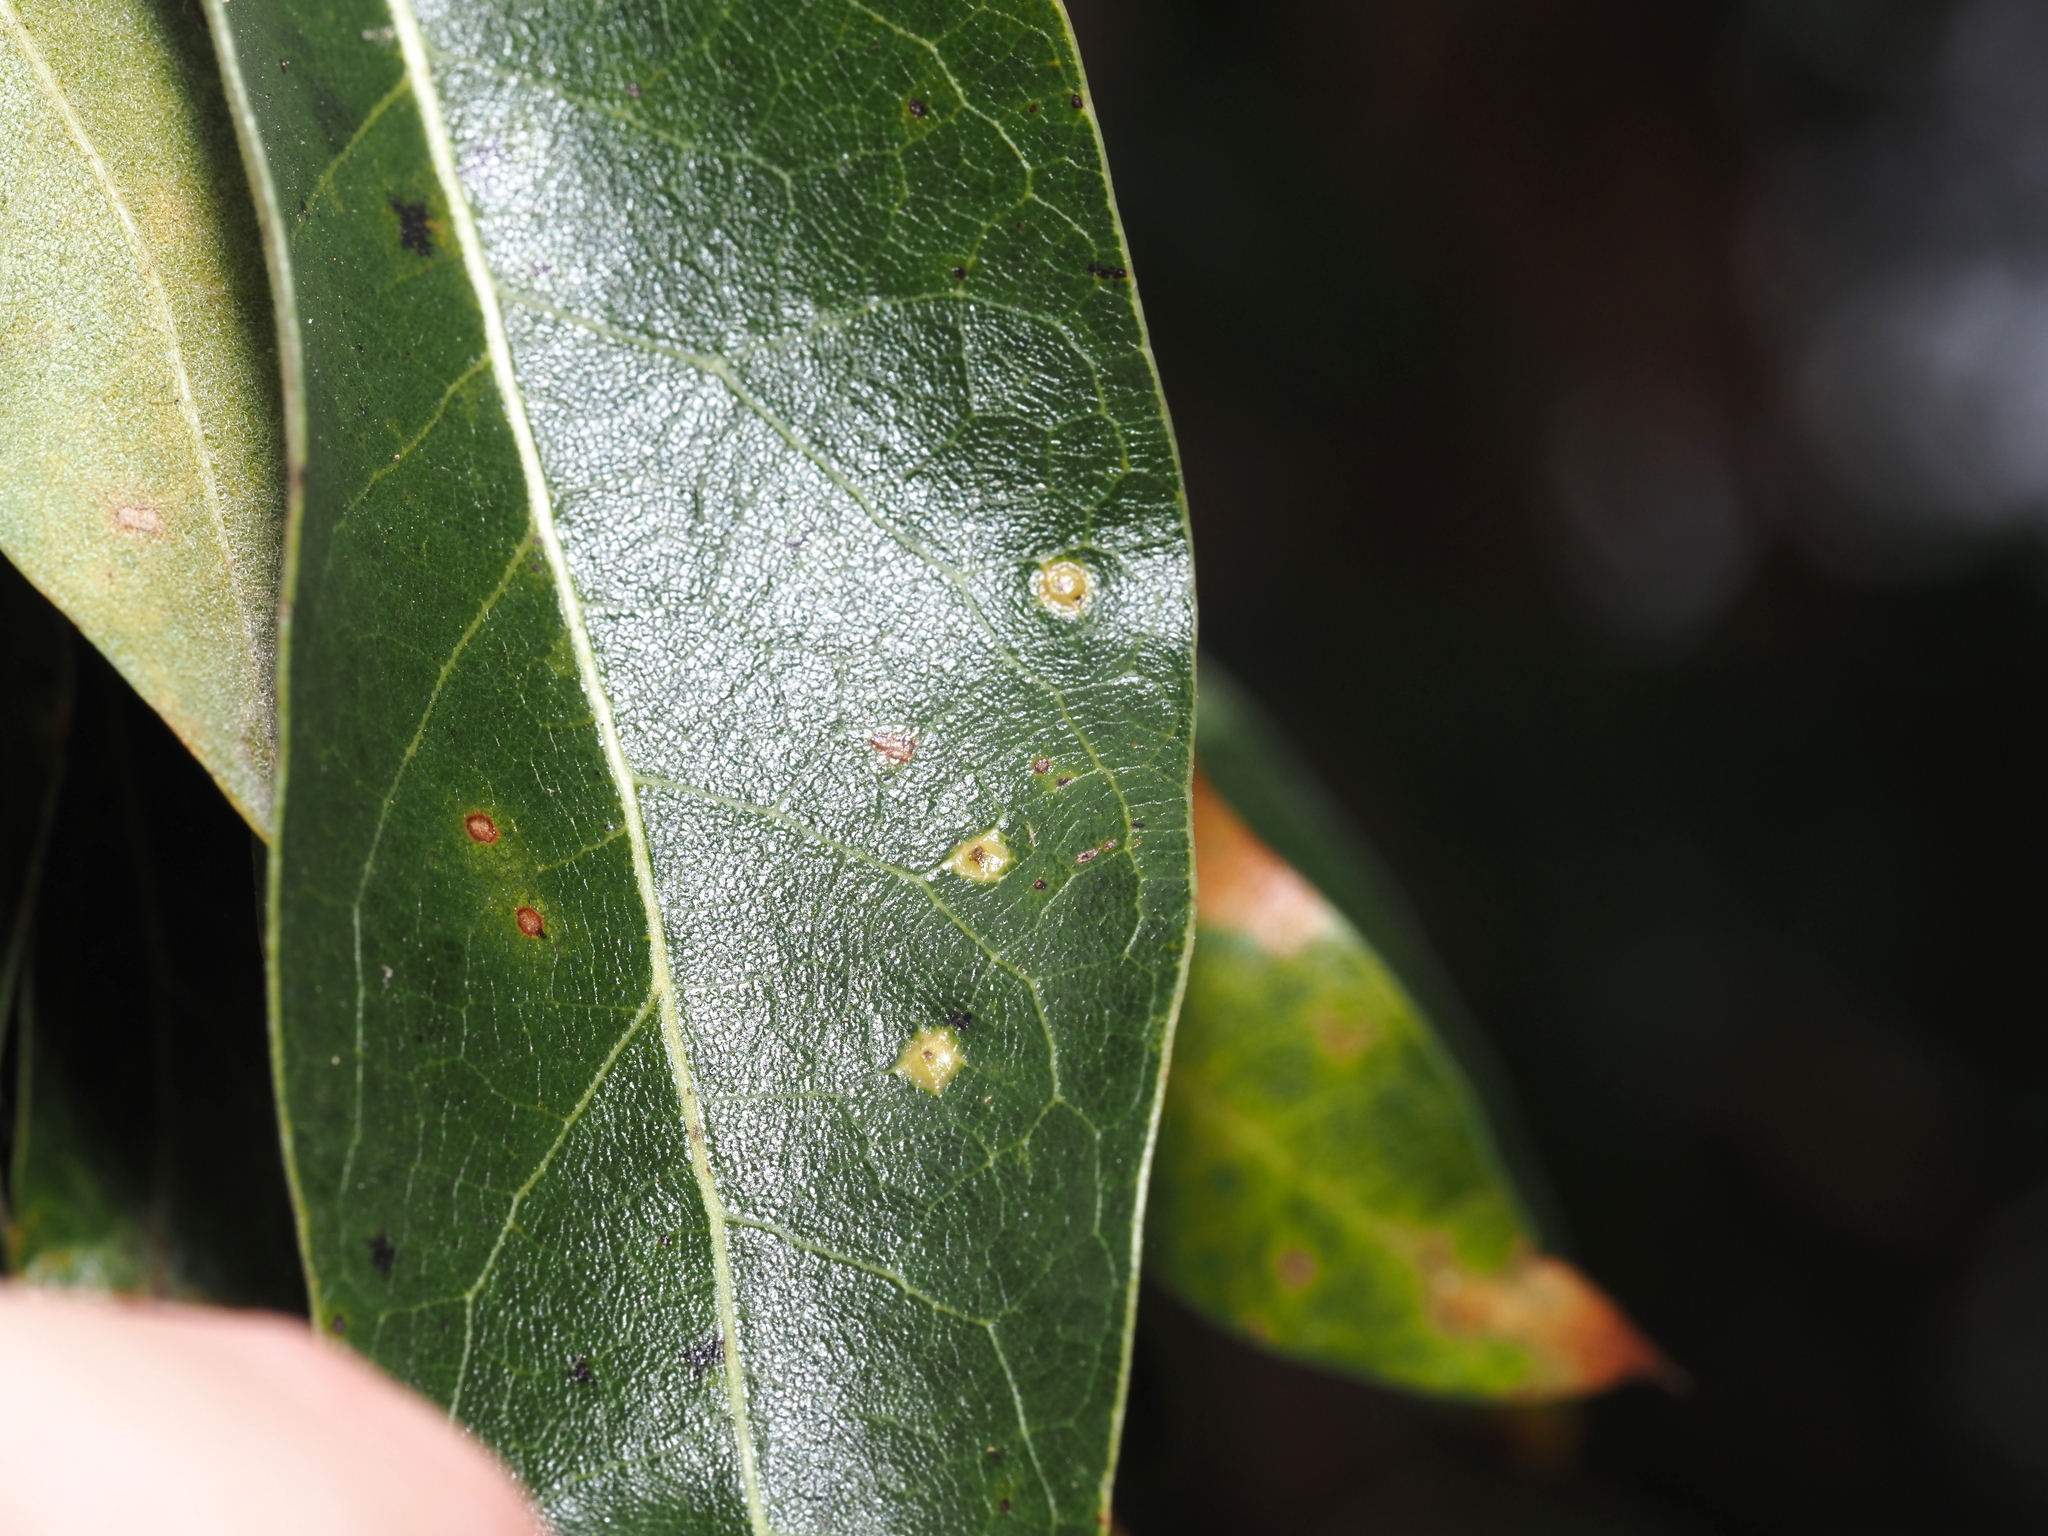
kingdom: Animalia
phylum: Arthropoda
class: Insecta
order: Diptera
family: Cecidomyiidae
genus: Polystepha
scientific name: Polystepha globosa
